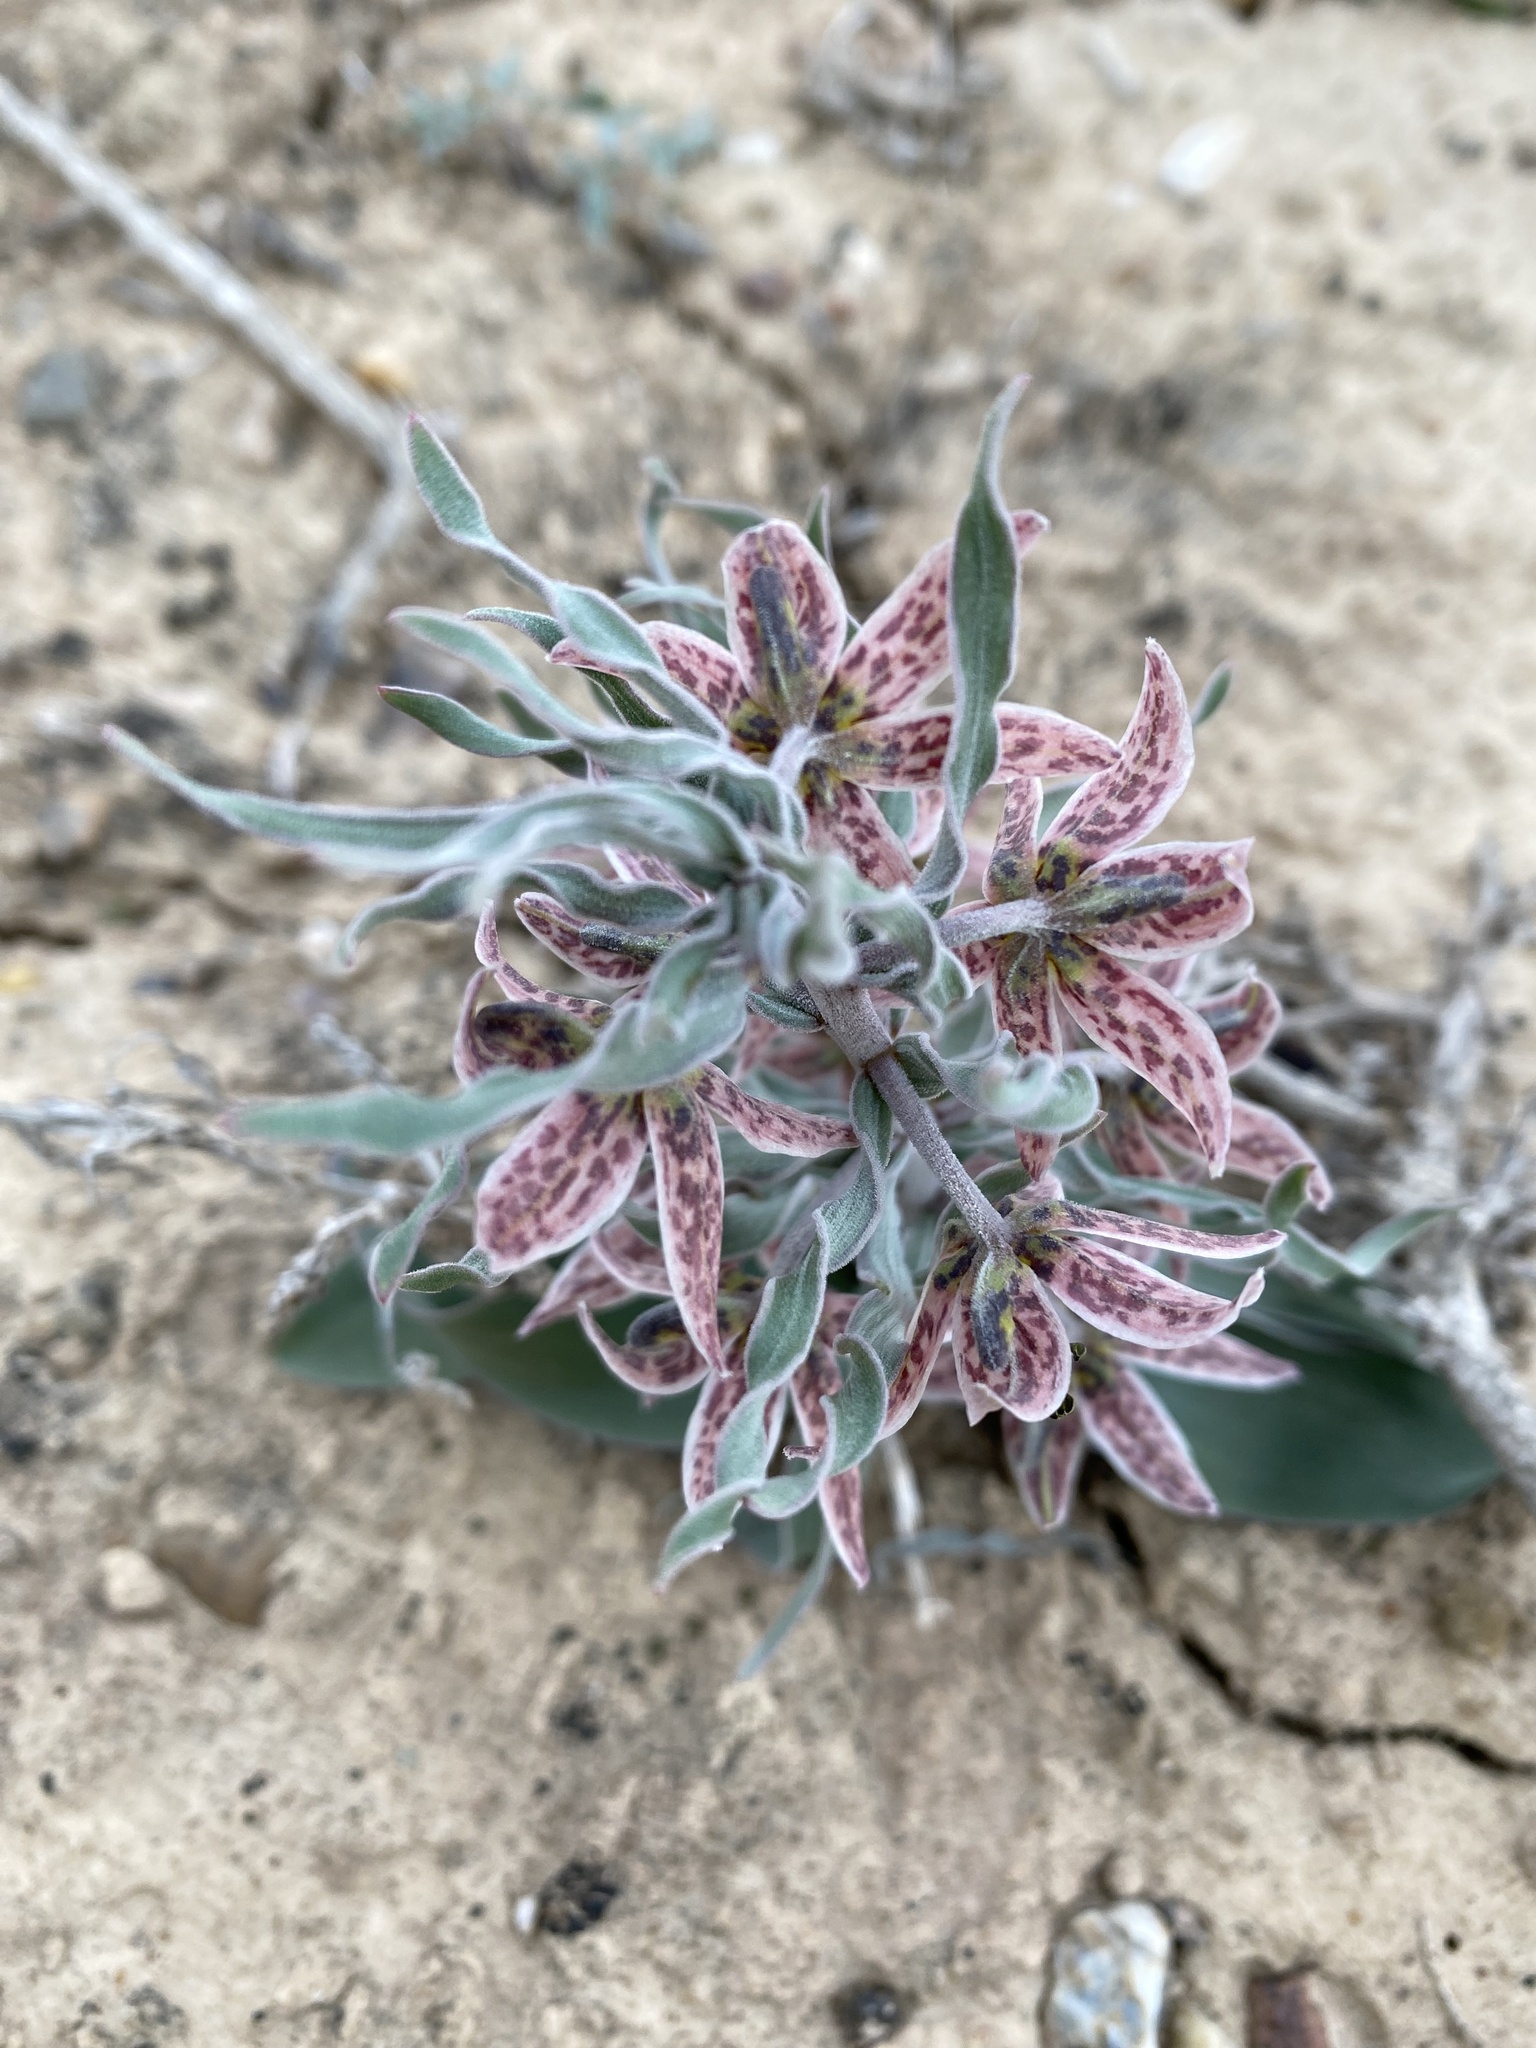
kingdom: Plantae
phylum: Tracheophyta
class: Liliopsida
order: Liliales
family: Liliaceae
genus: Fritillaria
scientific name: Fritillaria karelinii
